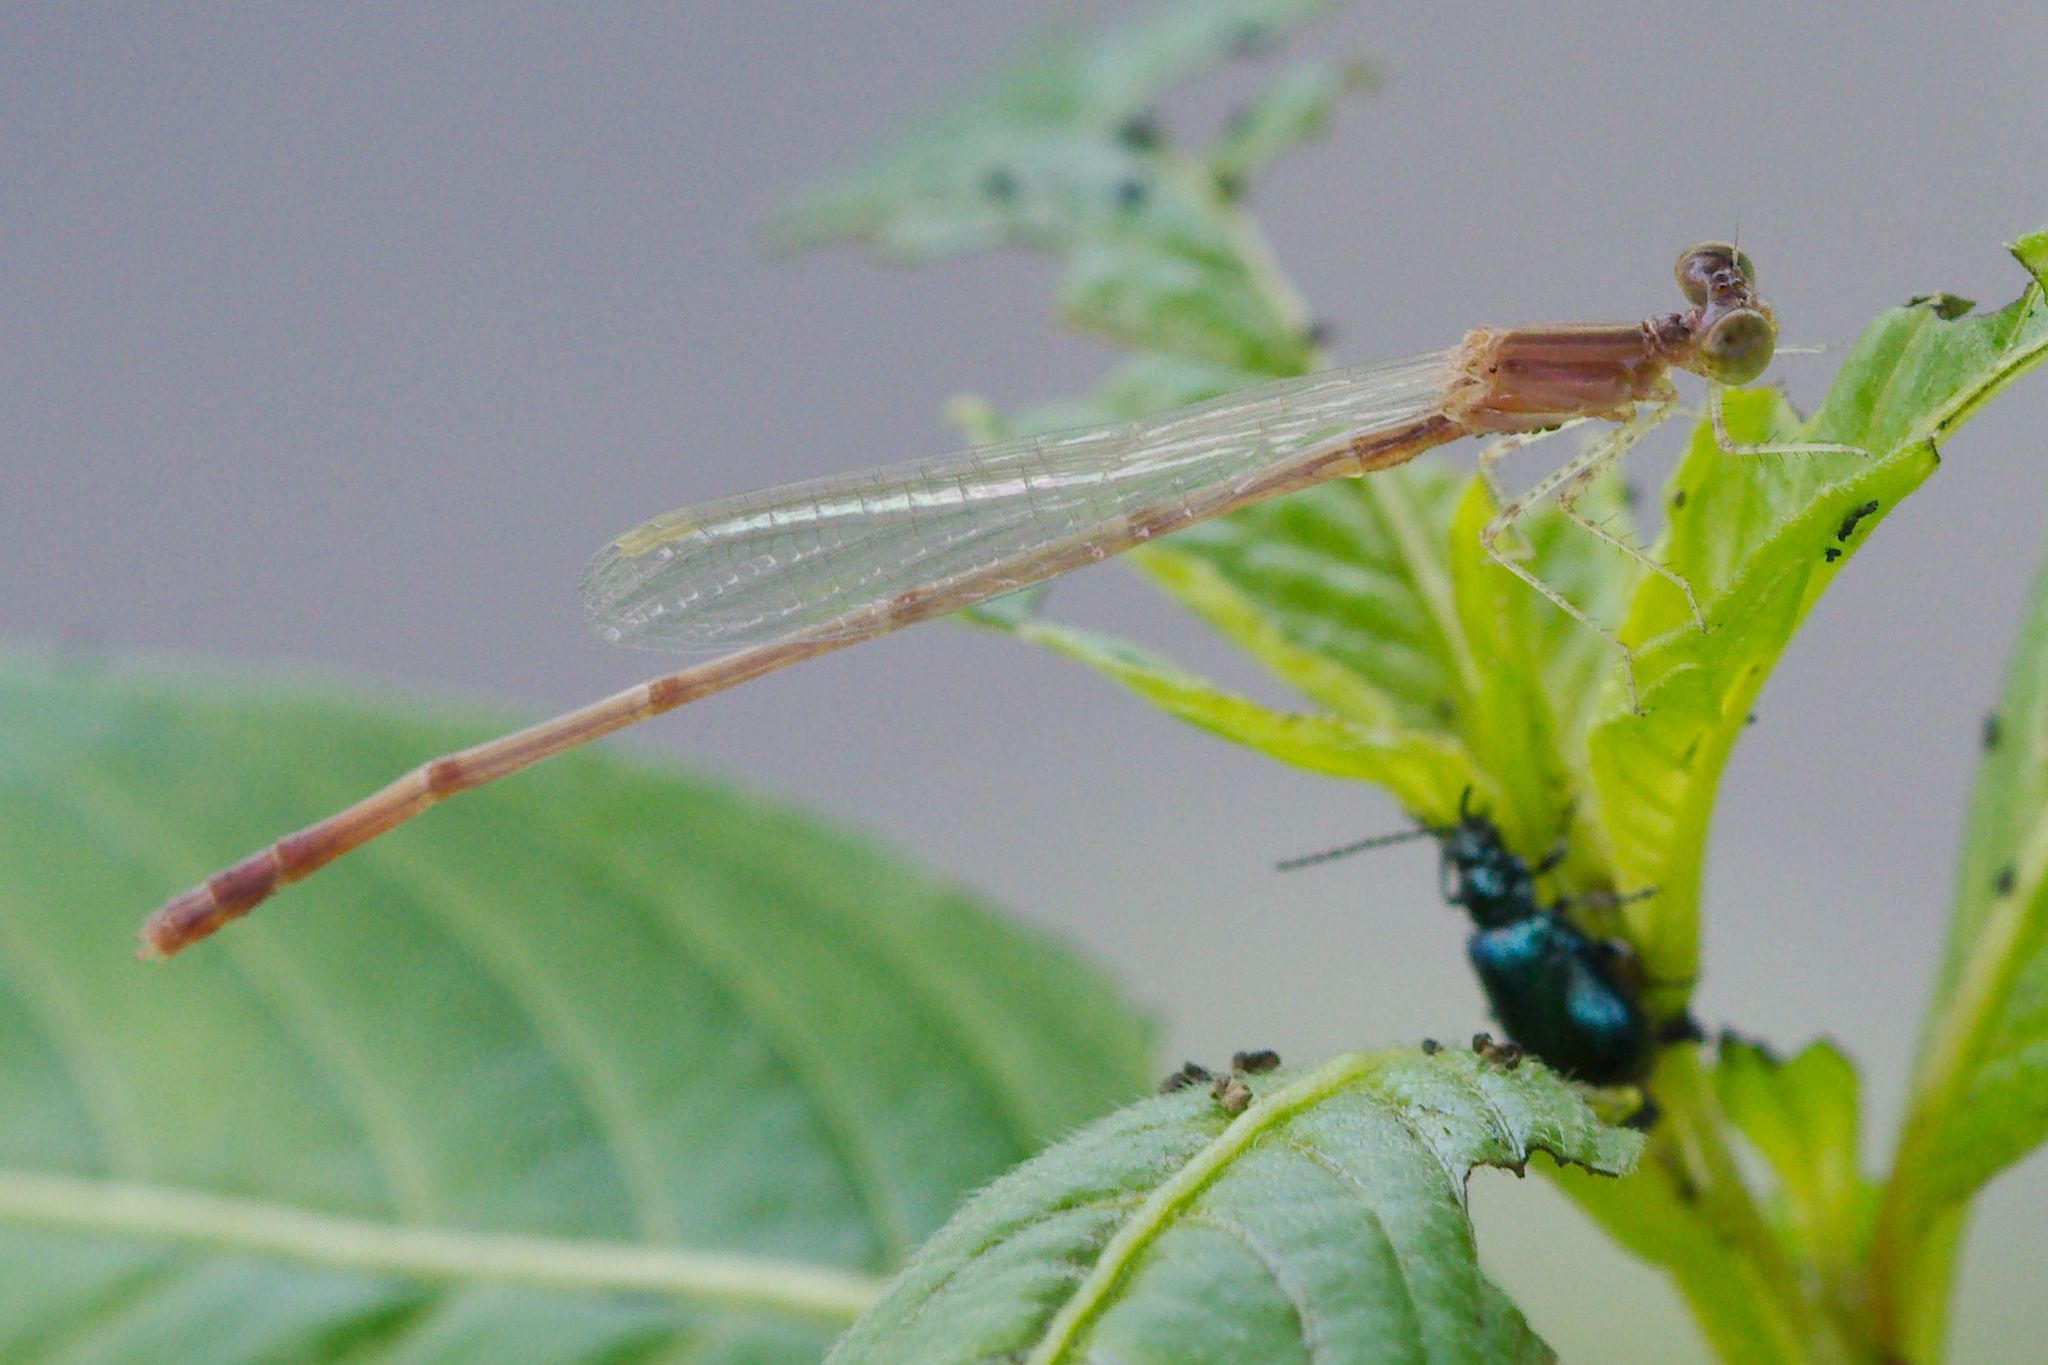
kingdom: Animalia
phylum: Arthropoda
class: Insecta
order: Odonata
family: Coenagrionidae
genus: Enallagma
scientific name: Enallagma pollutum
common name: Florida bluet
